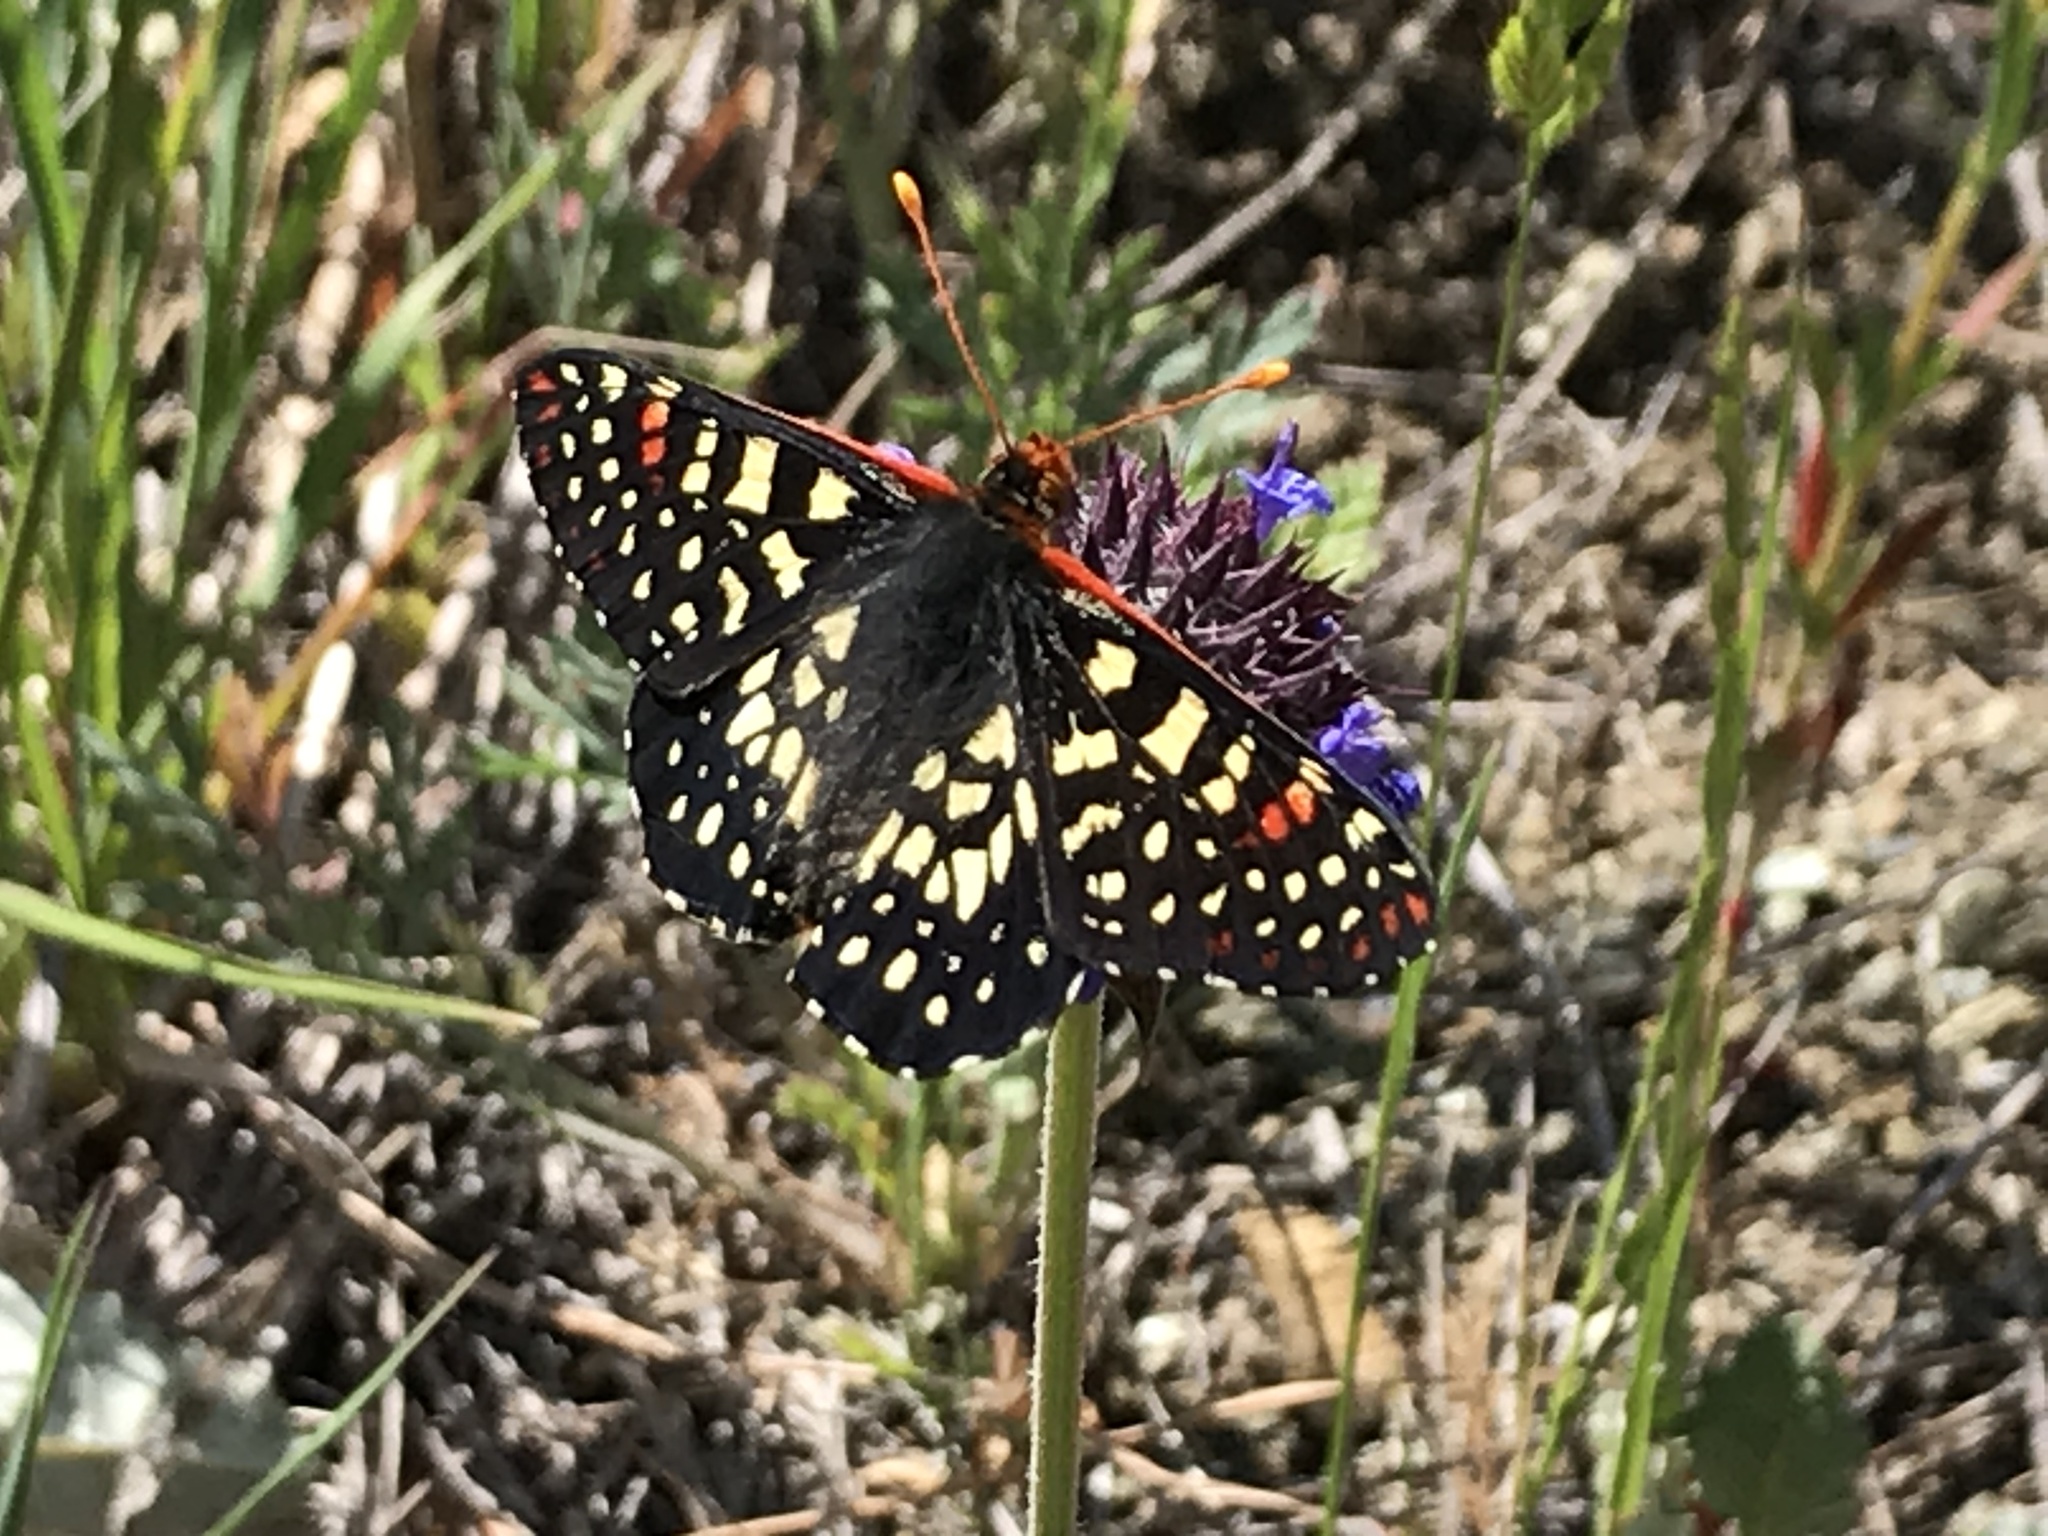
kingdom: Animalia
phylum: Arthropoda
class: Insecta
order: Lepidoptera
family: Nymphalidae
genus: Occidryas
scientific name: Occidryas chalcedona
